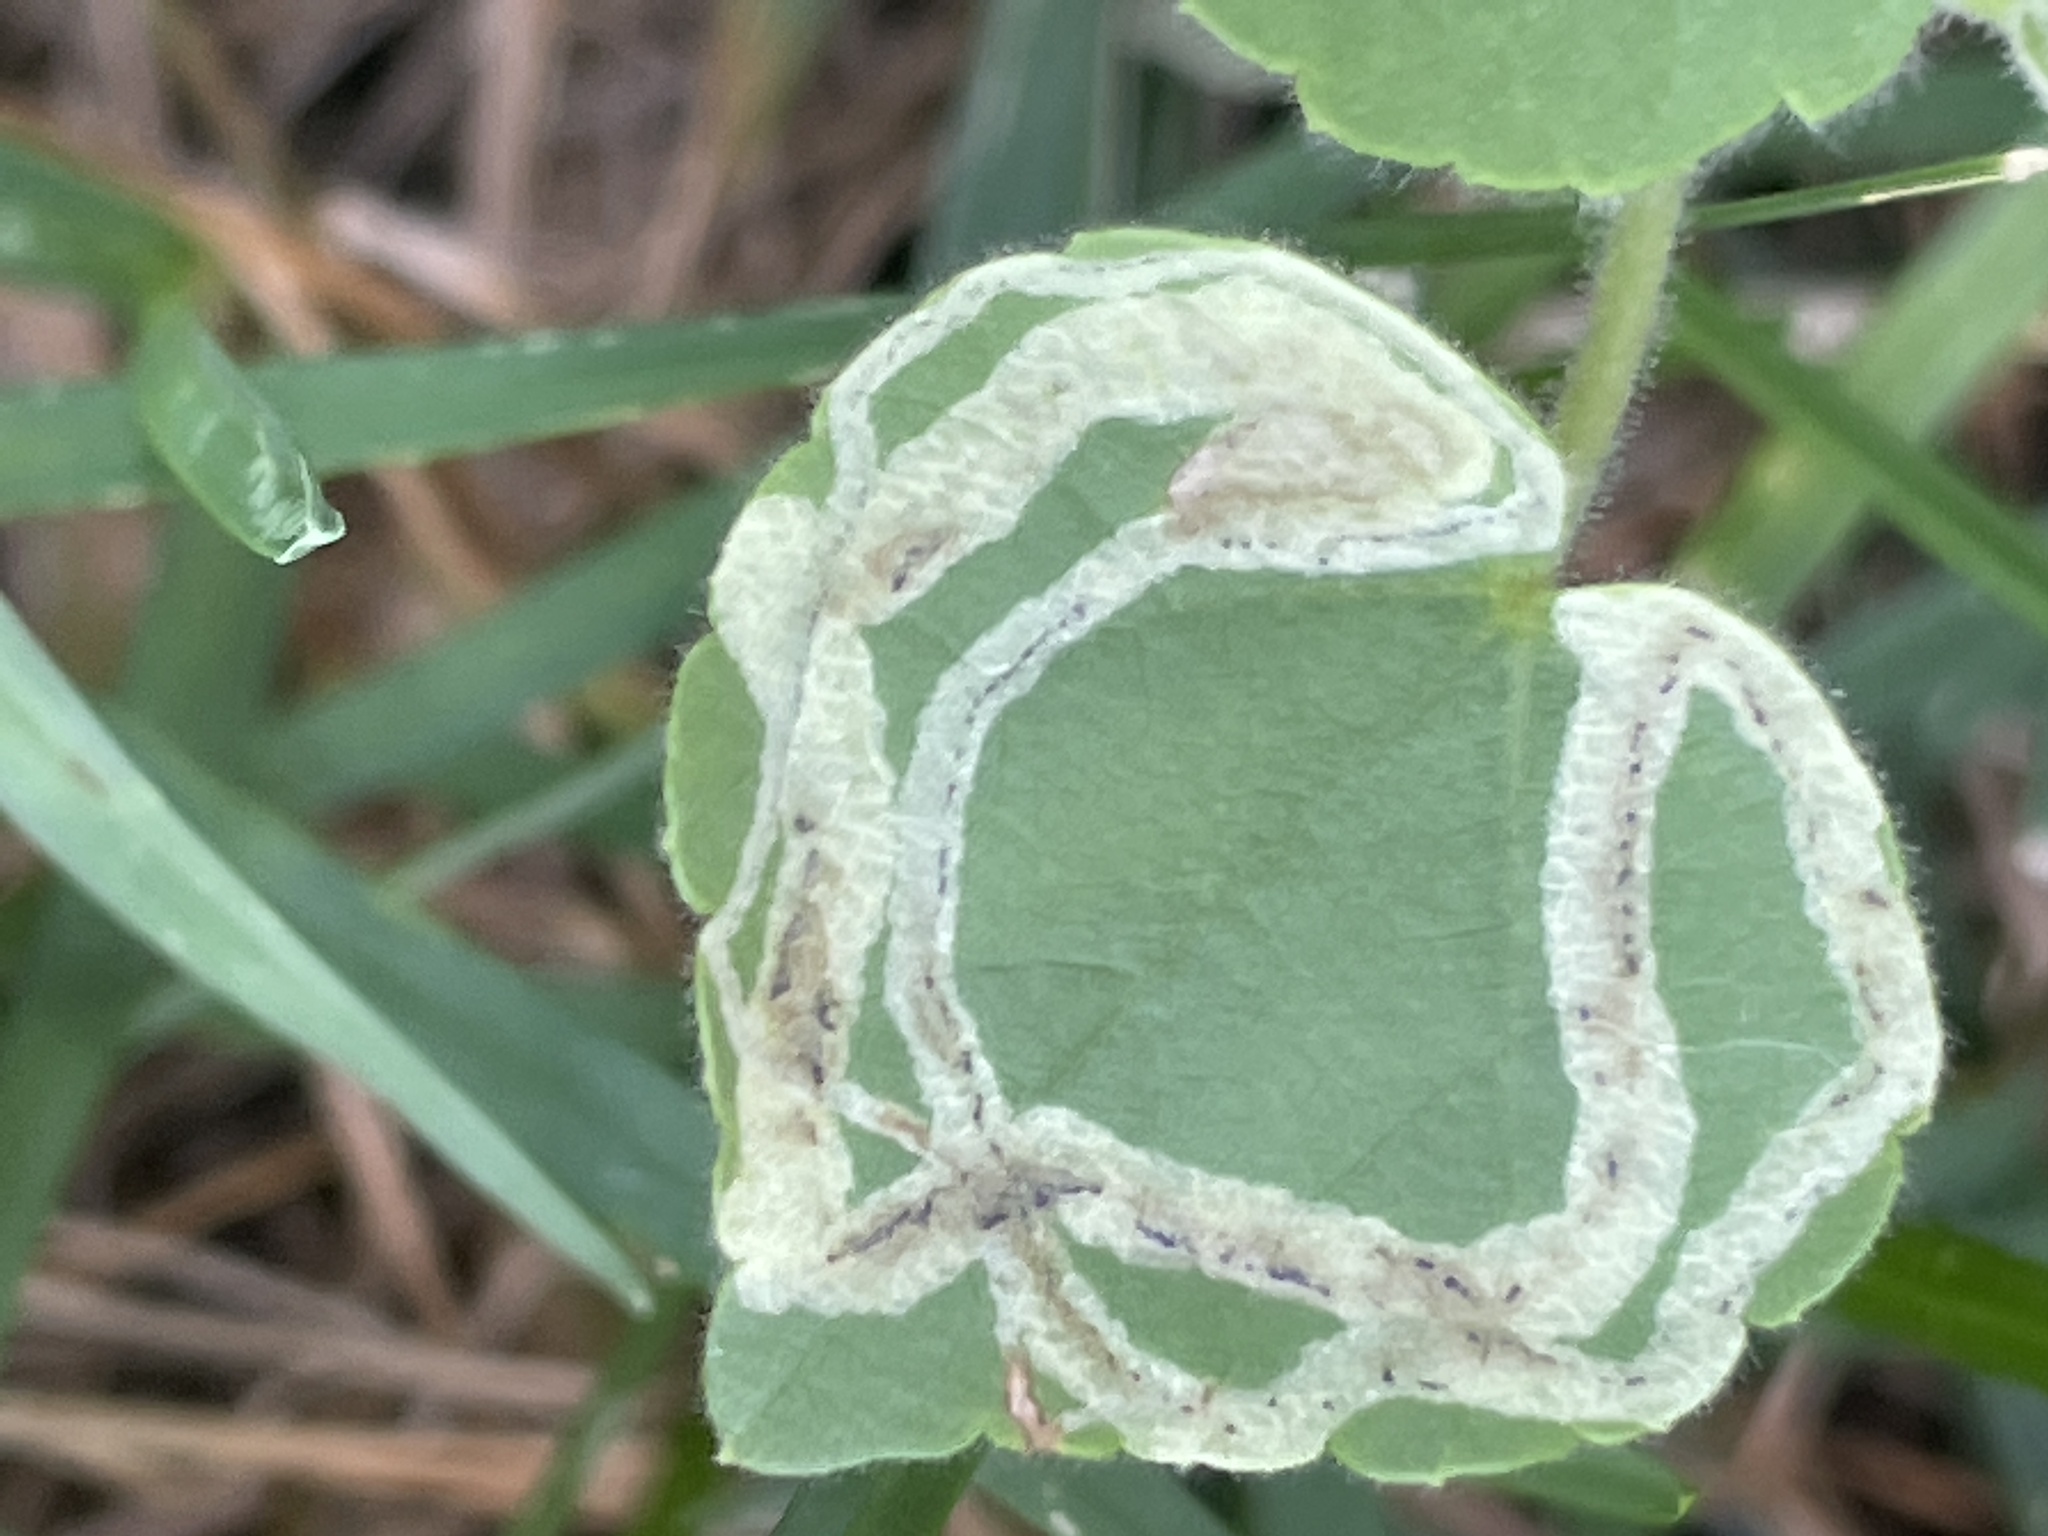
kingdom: Animalia
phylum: Arthropoda
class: Insecta
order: Diptera
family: Agromyzidae
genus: Calycomyza
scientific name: Calycomyza malvae
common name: Mallow leaf miner
